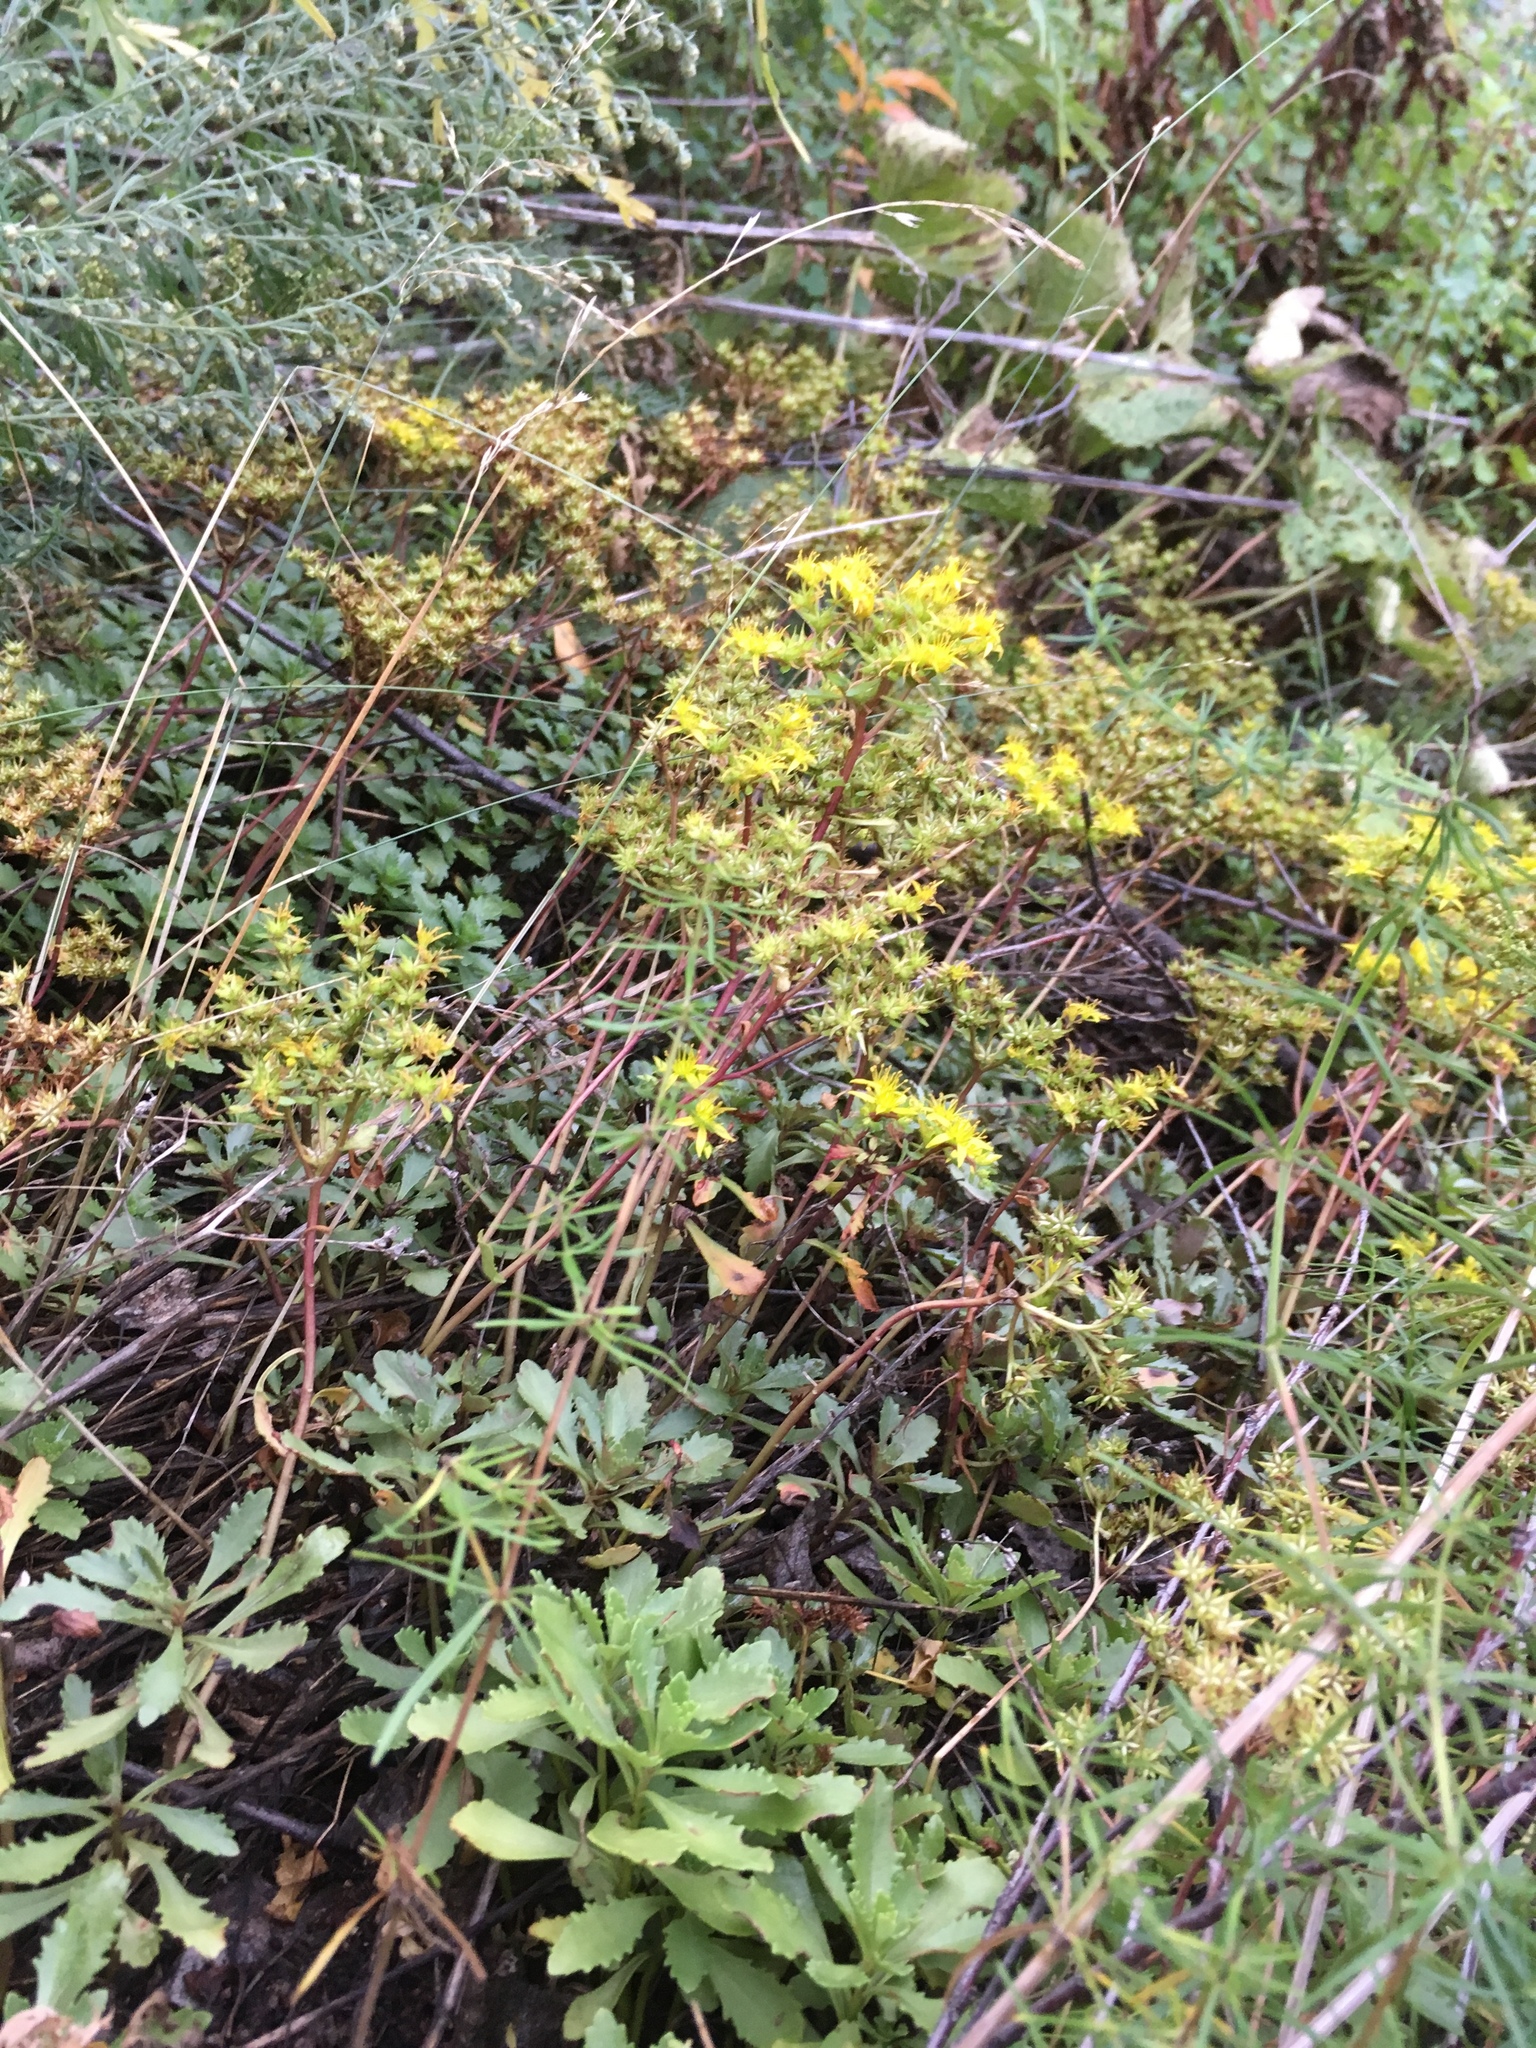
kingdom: Plantae
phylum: Tracheophyta
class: Magnoliopsida
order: Saxifragales
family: Crassulaceae
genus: Phedimus
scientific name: Phedimus hybridus
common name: Hybrid stonecrop
